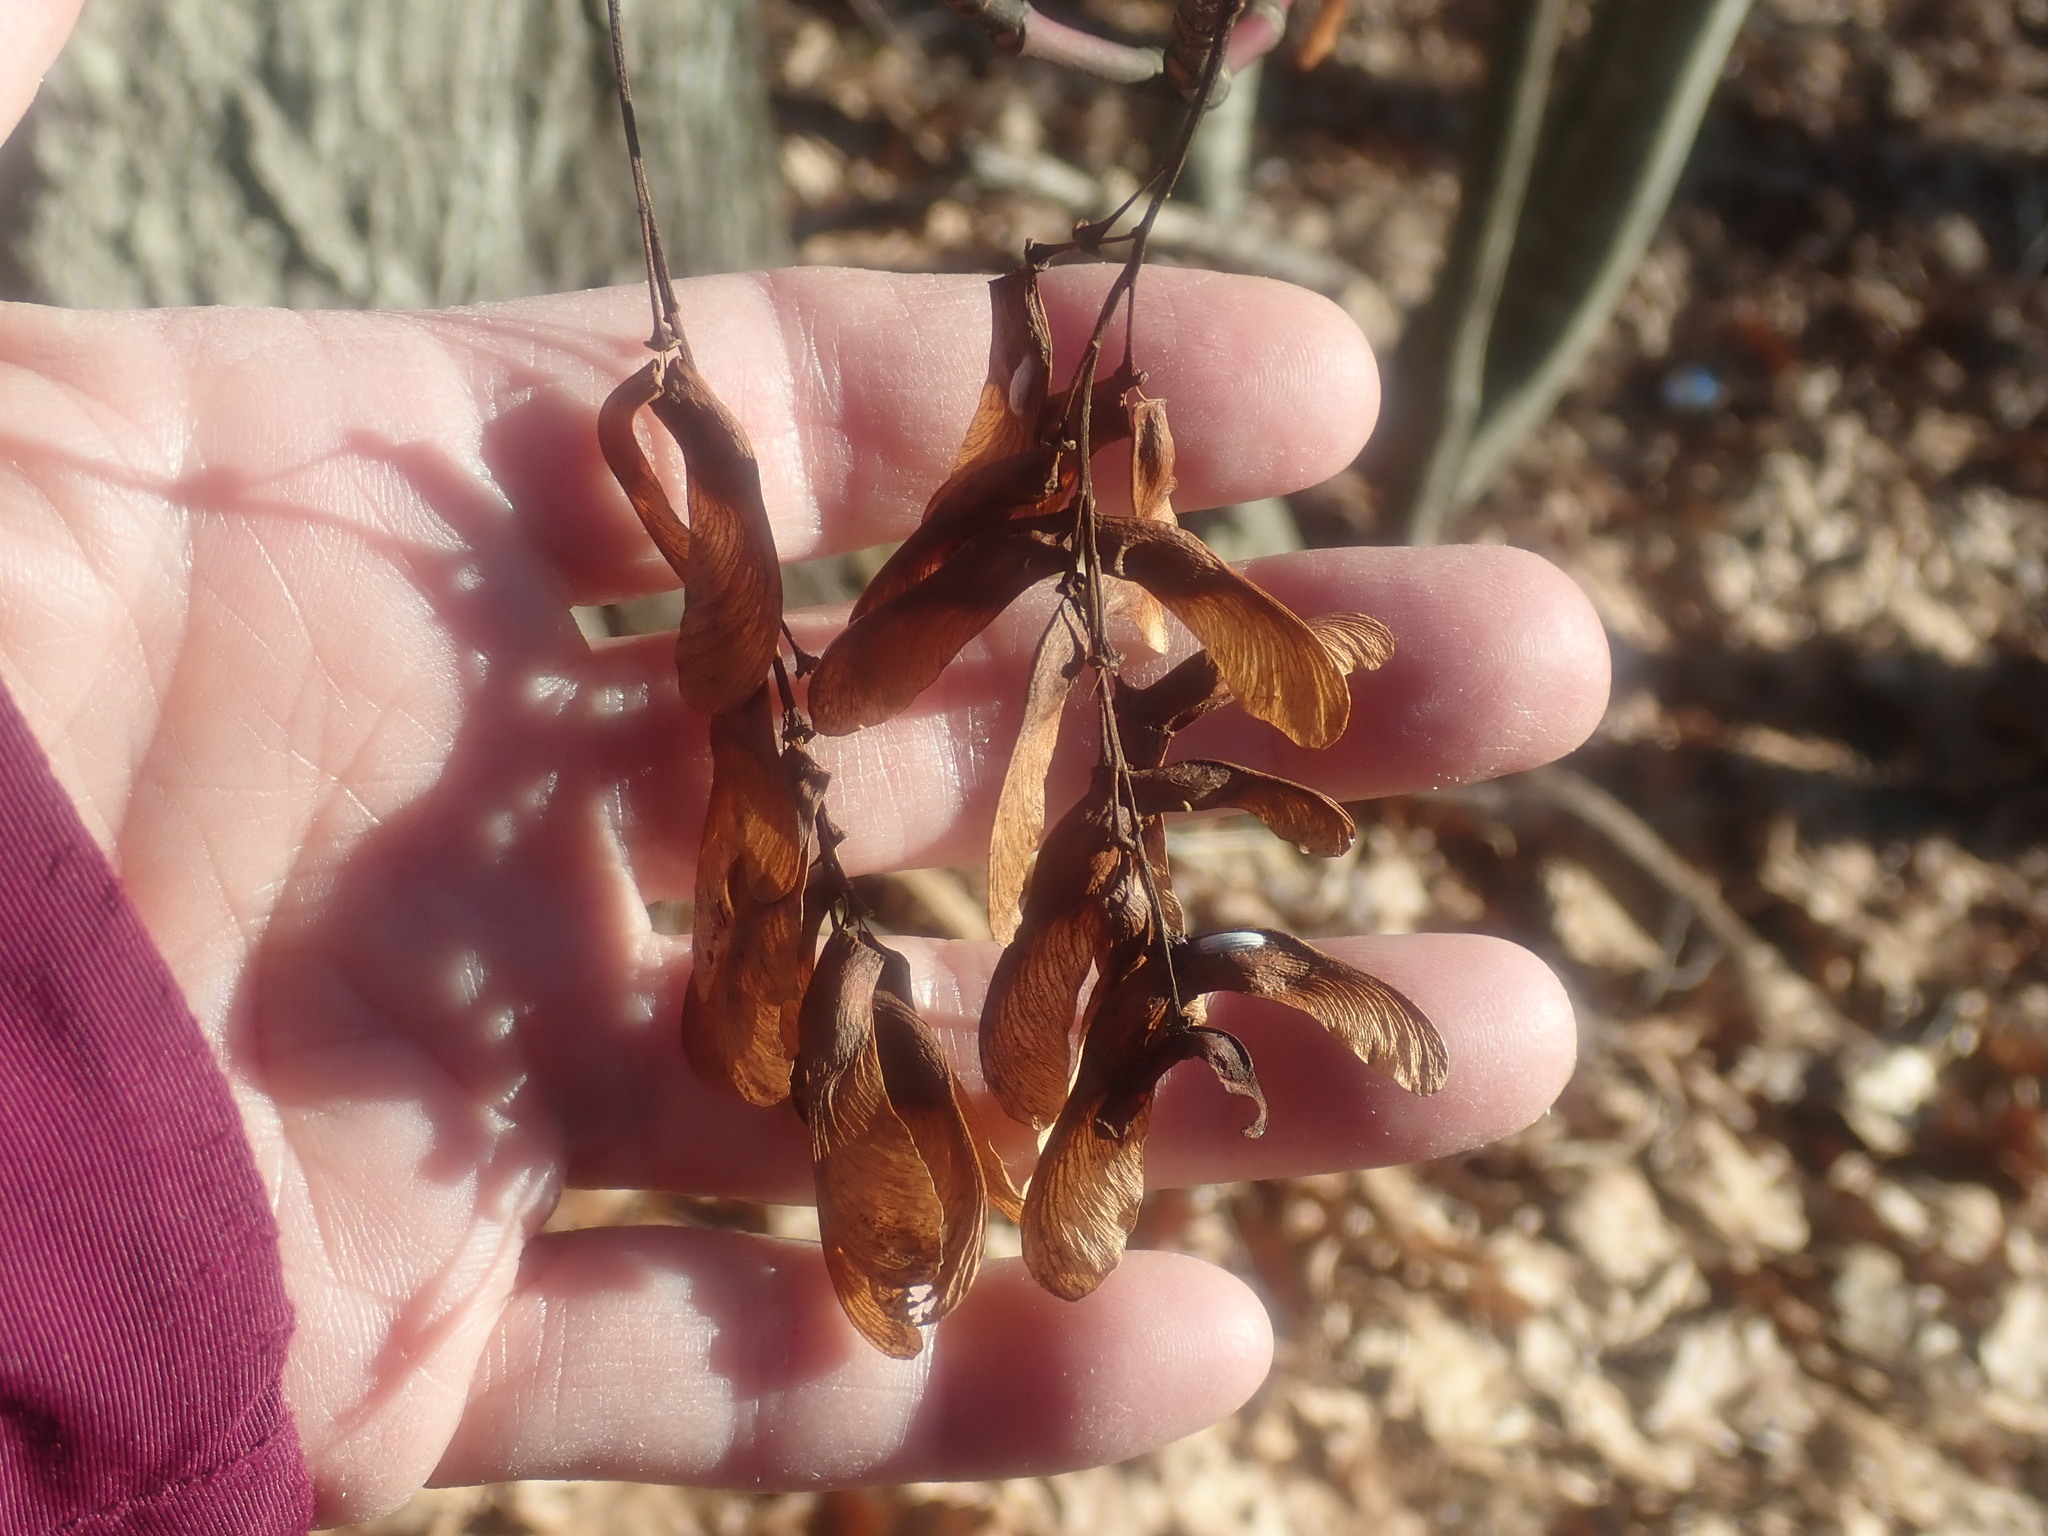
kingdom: Plantae
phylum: Tracheophyta
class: Magnoliopsida
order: Sapindales
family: Sapindaceae
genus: Acer
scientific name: Acer pensylvanicum
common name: Moosewood
